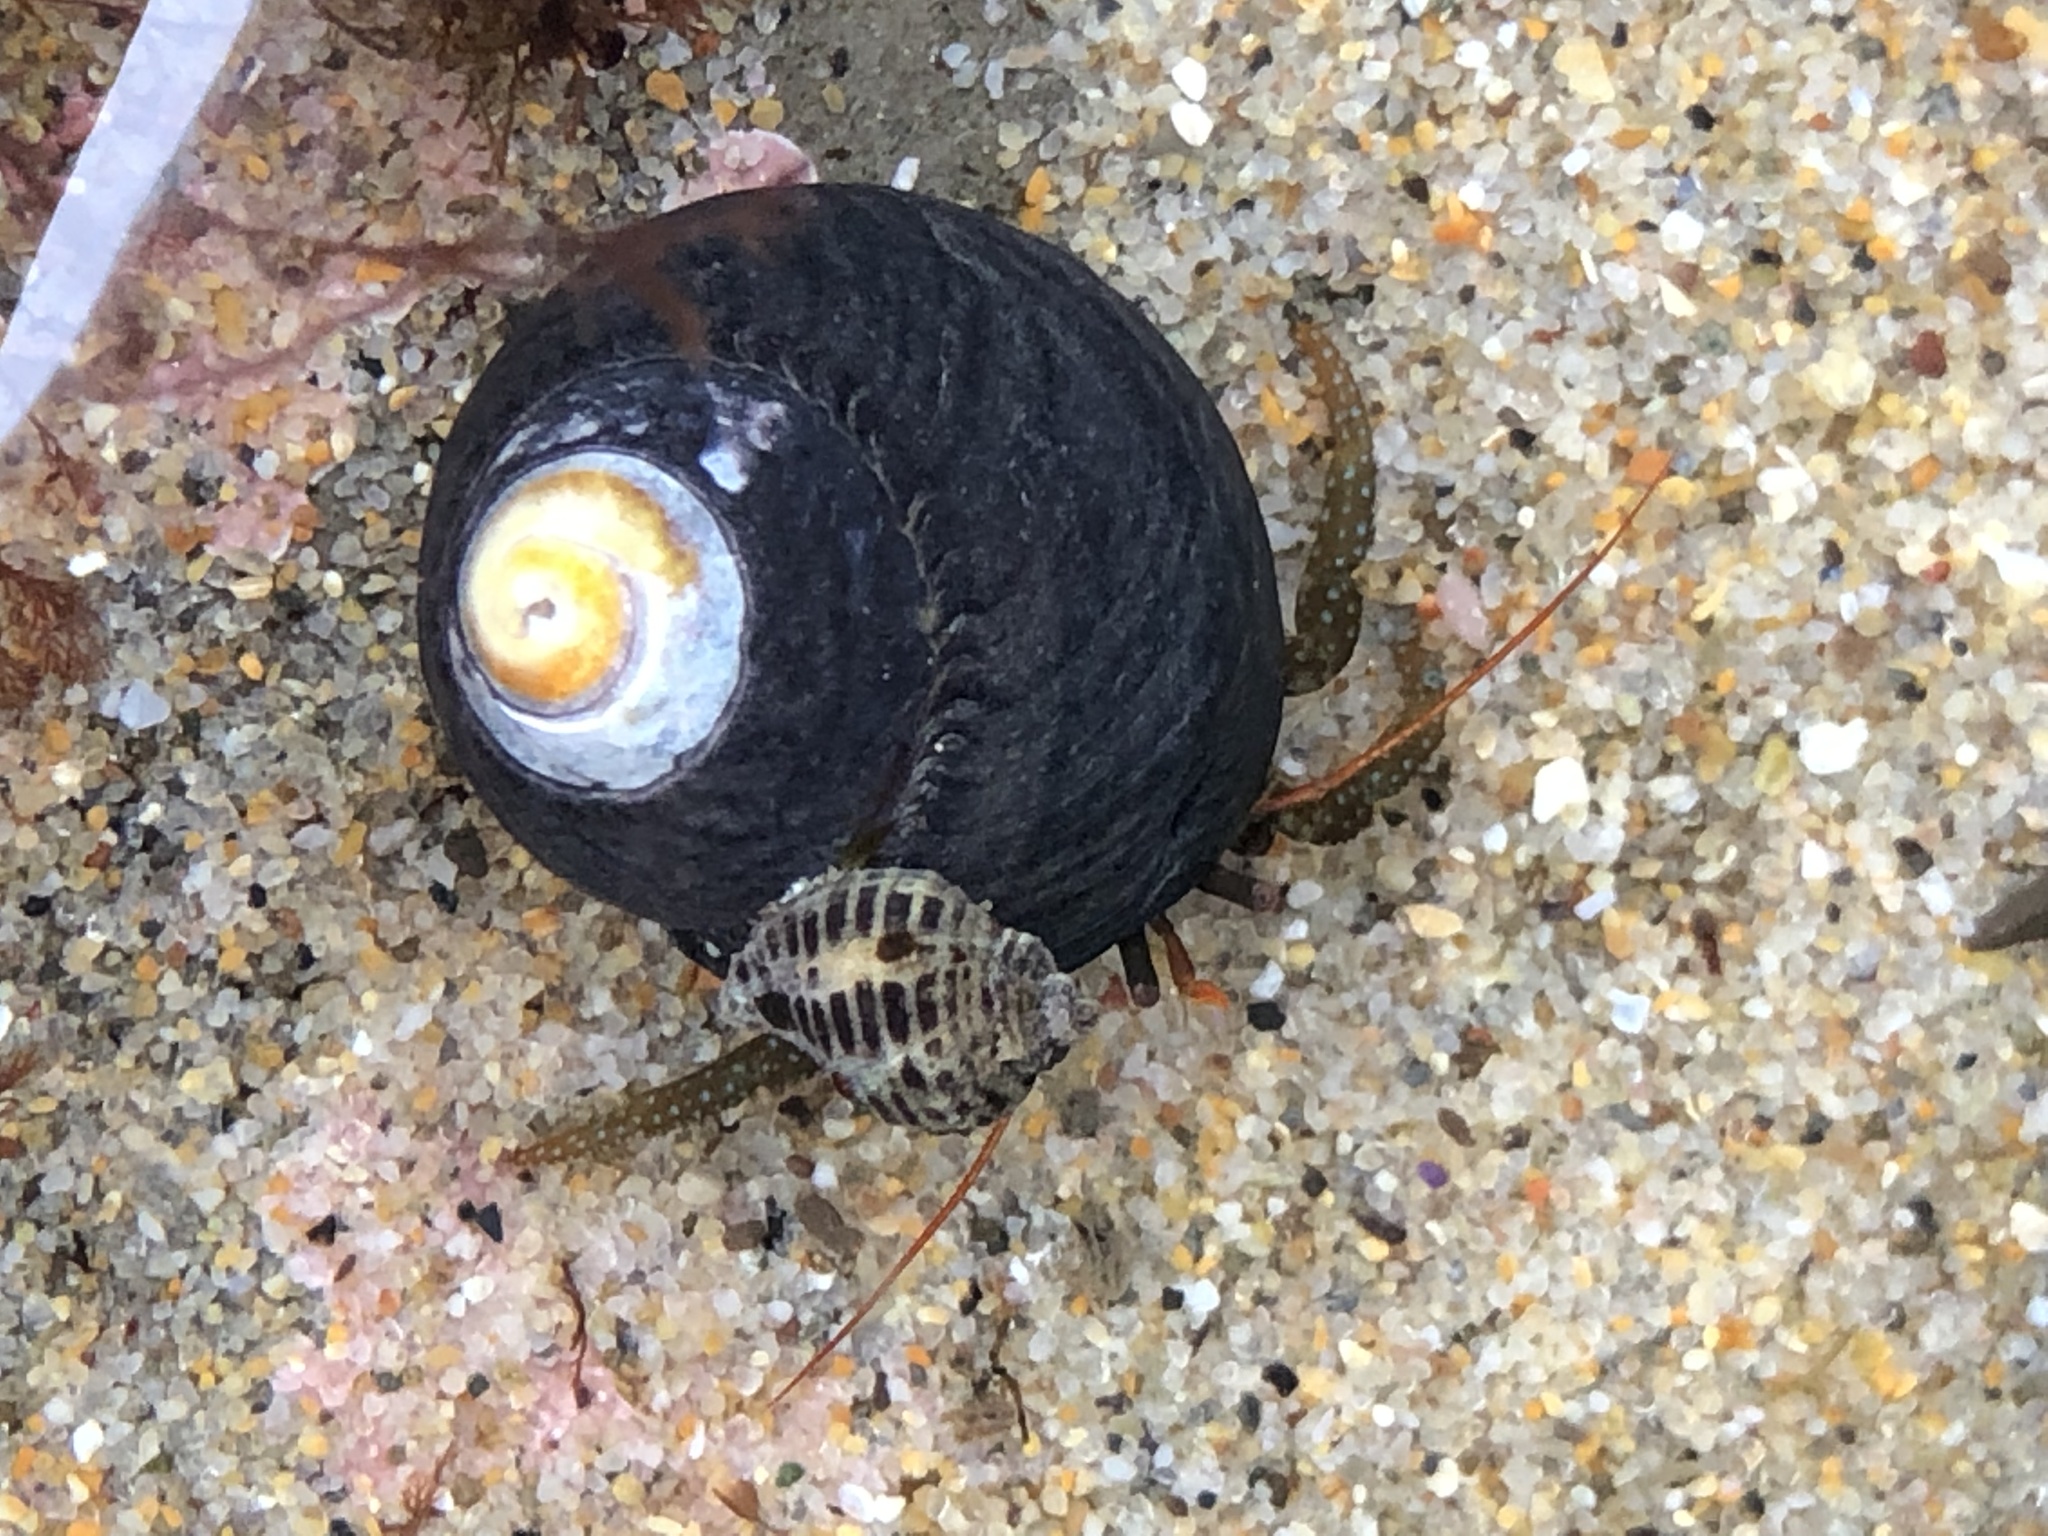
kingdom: Animalia
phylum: Arthropoda
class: Malacostraca
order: Decapoda
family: Paguridae
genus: Pagurus
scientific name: Pagurus granosimanus
